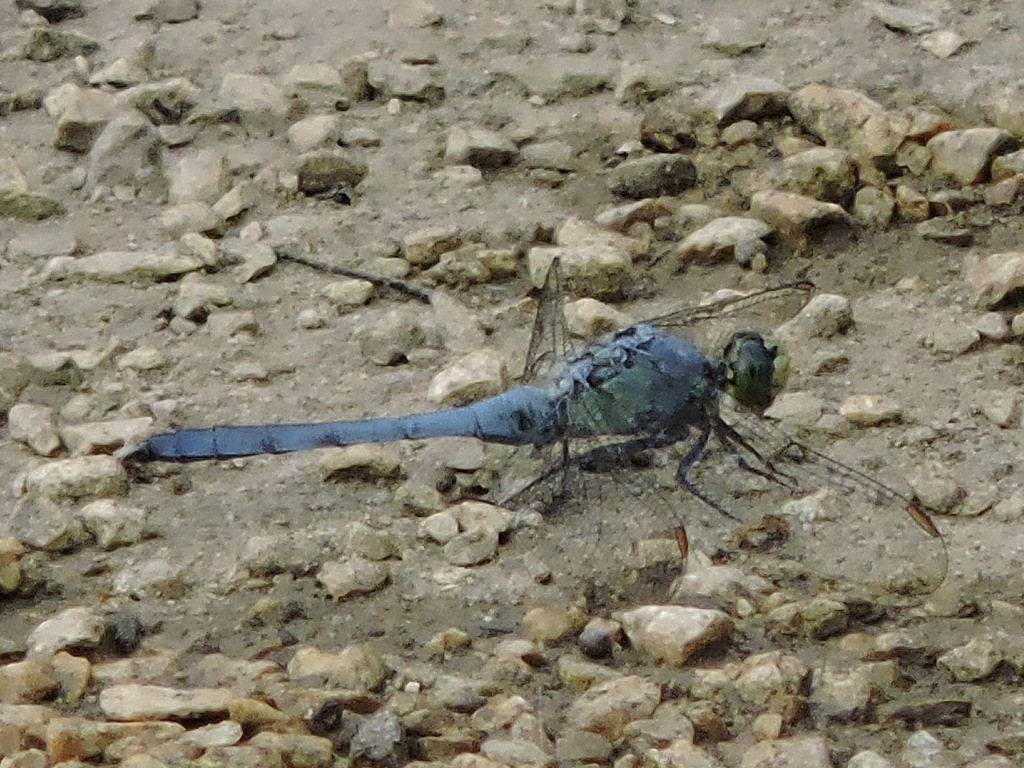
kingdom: Animalia
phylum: Arthropoda
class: Insecta
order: Odonata
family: Libellulidae
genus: Erythemis
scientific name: Erythemis simplicicollis
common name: Eastern pondhawk
